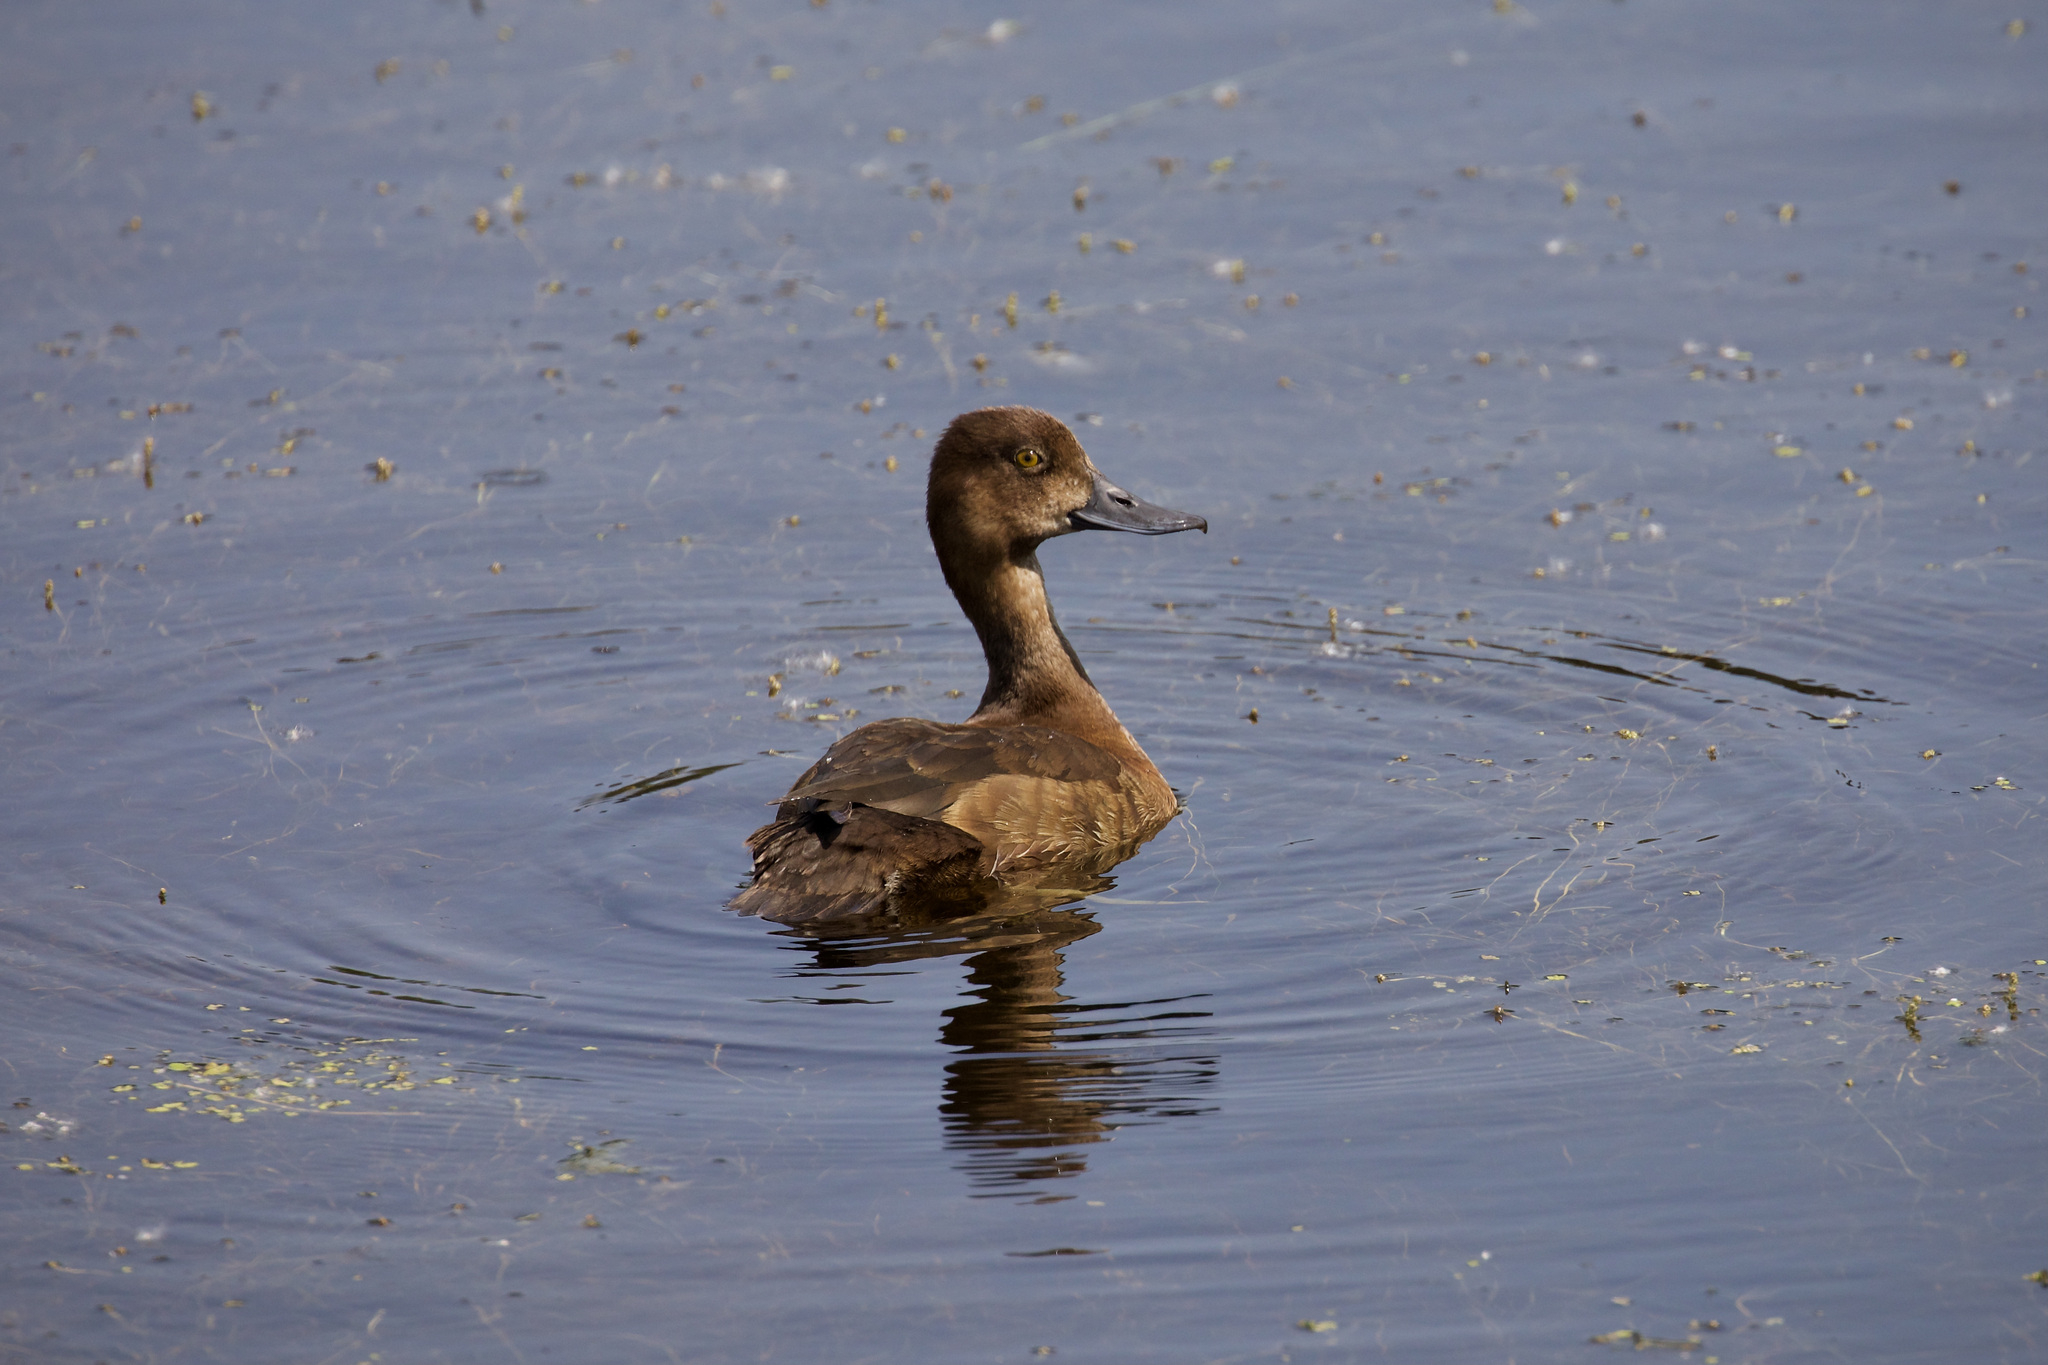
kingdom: Animalia
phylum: Chordata
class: Aves
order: Anseriformes
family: Anatidae
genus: Aythya
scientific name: Aythya affinis
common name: Lesser scaup
